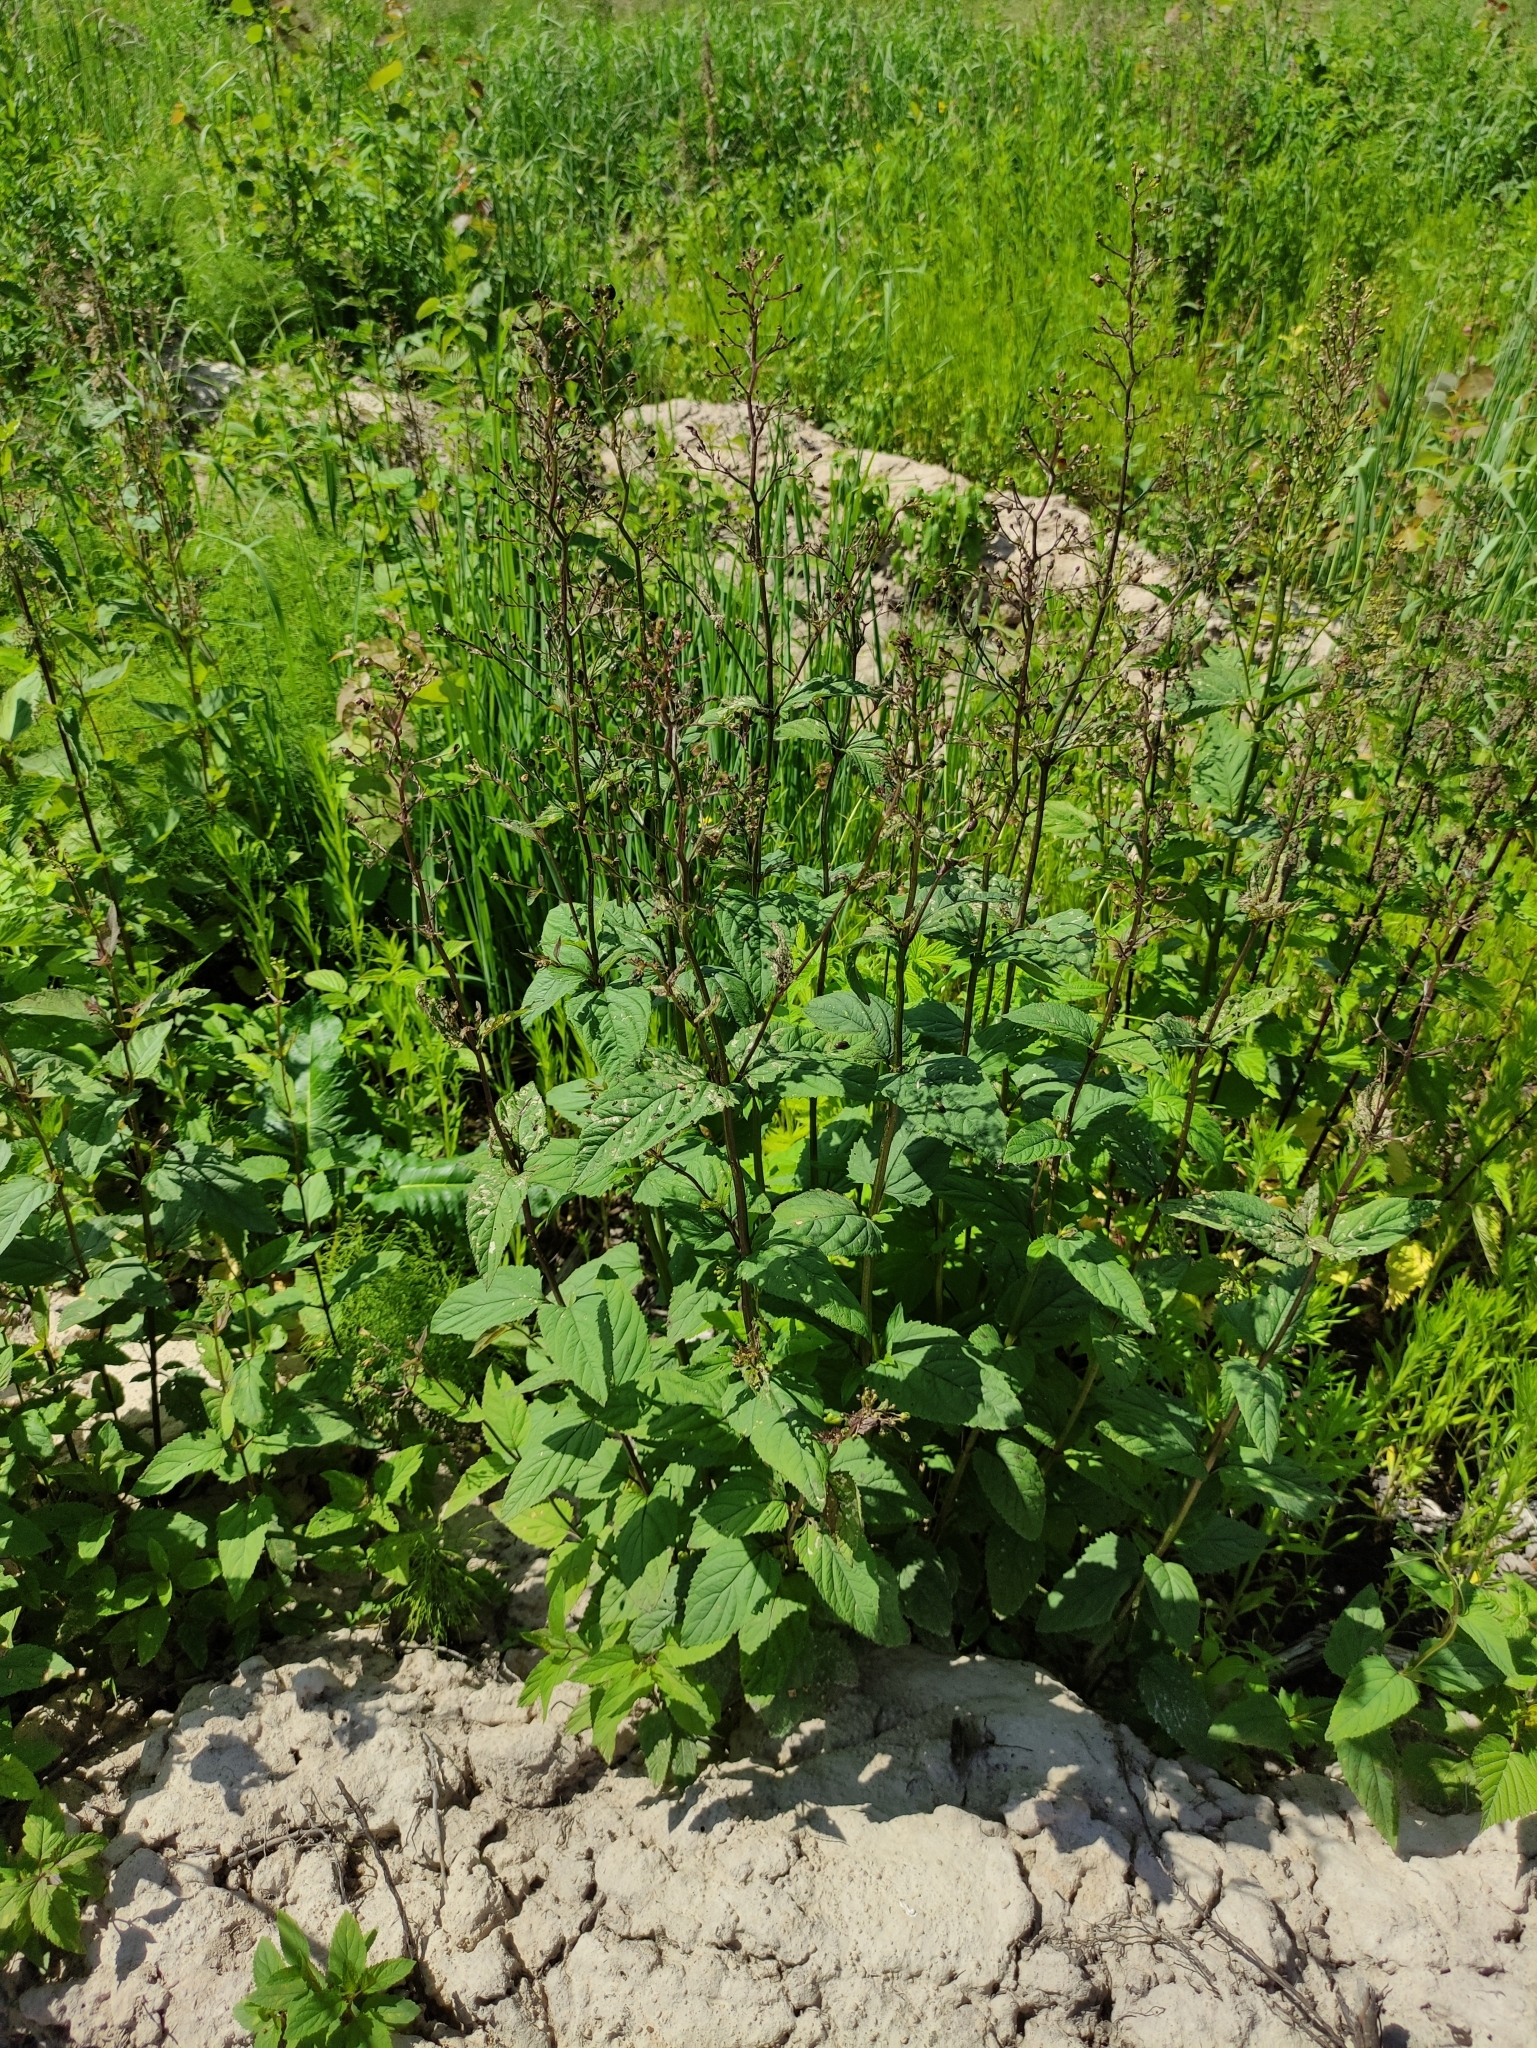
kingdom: Plantae
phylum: Tracheophyta
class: Magnoliopsida
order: Lamiales
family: Scrophulariaceae
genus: Scrophularia
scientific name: Scrophularia nodosa
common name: Common figwort
